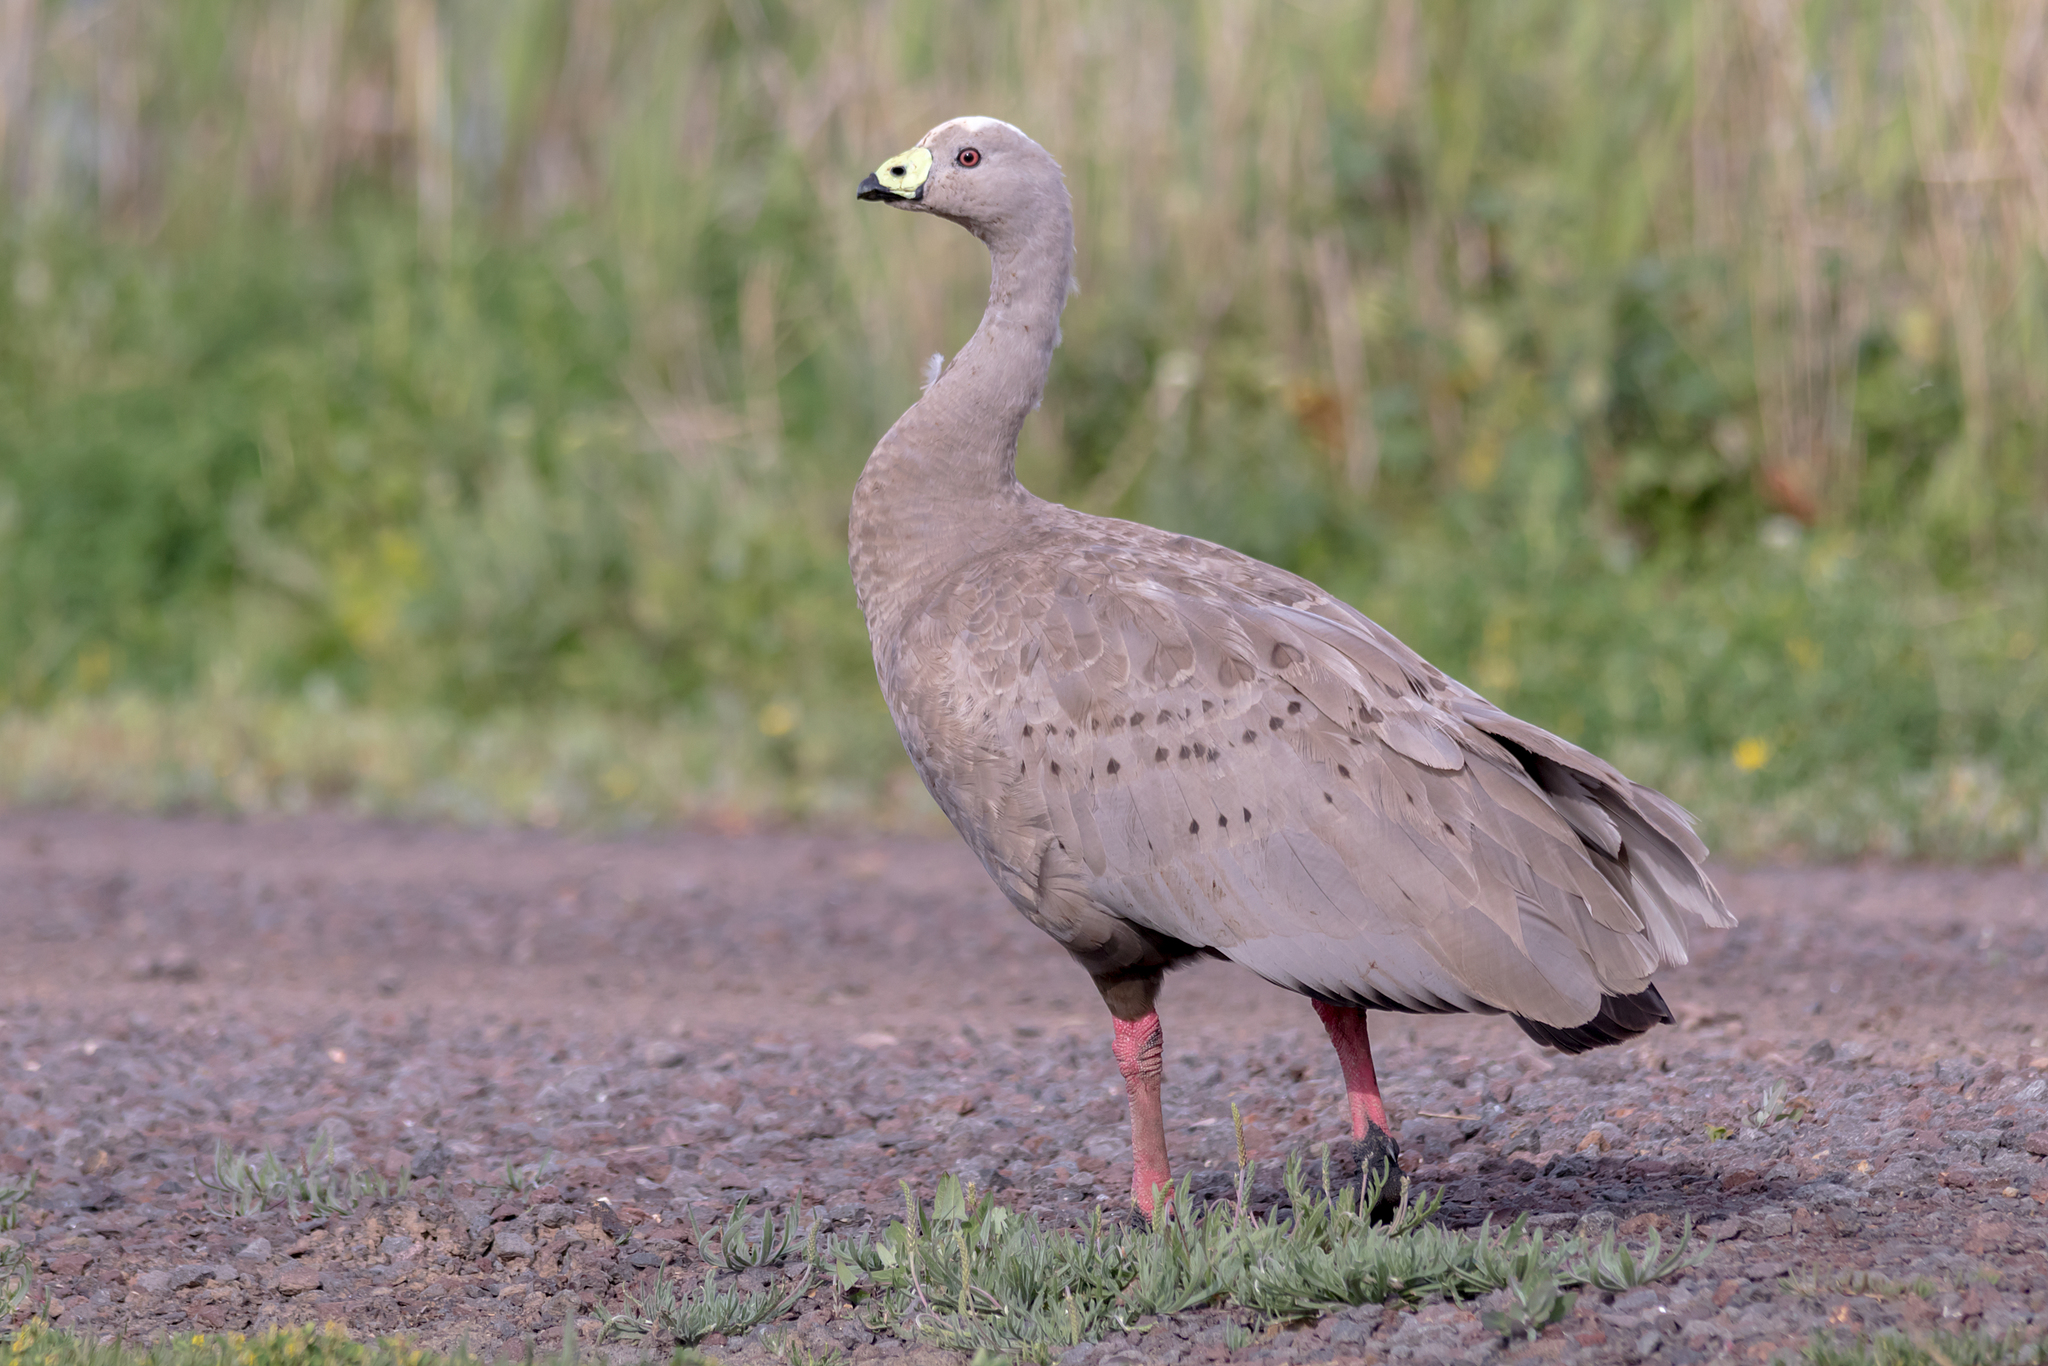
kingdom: Animalia
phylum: Chordata
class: Aves
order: Anseriformes
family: Anatidae
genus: Cereopsis
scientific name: Cereopsis novaehollandiae
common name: Cape barren goose
